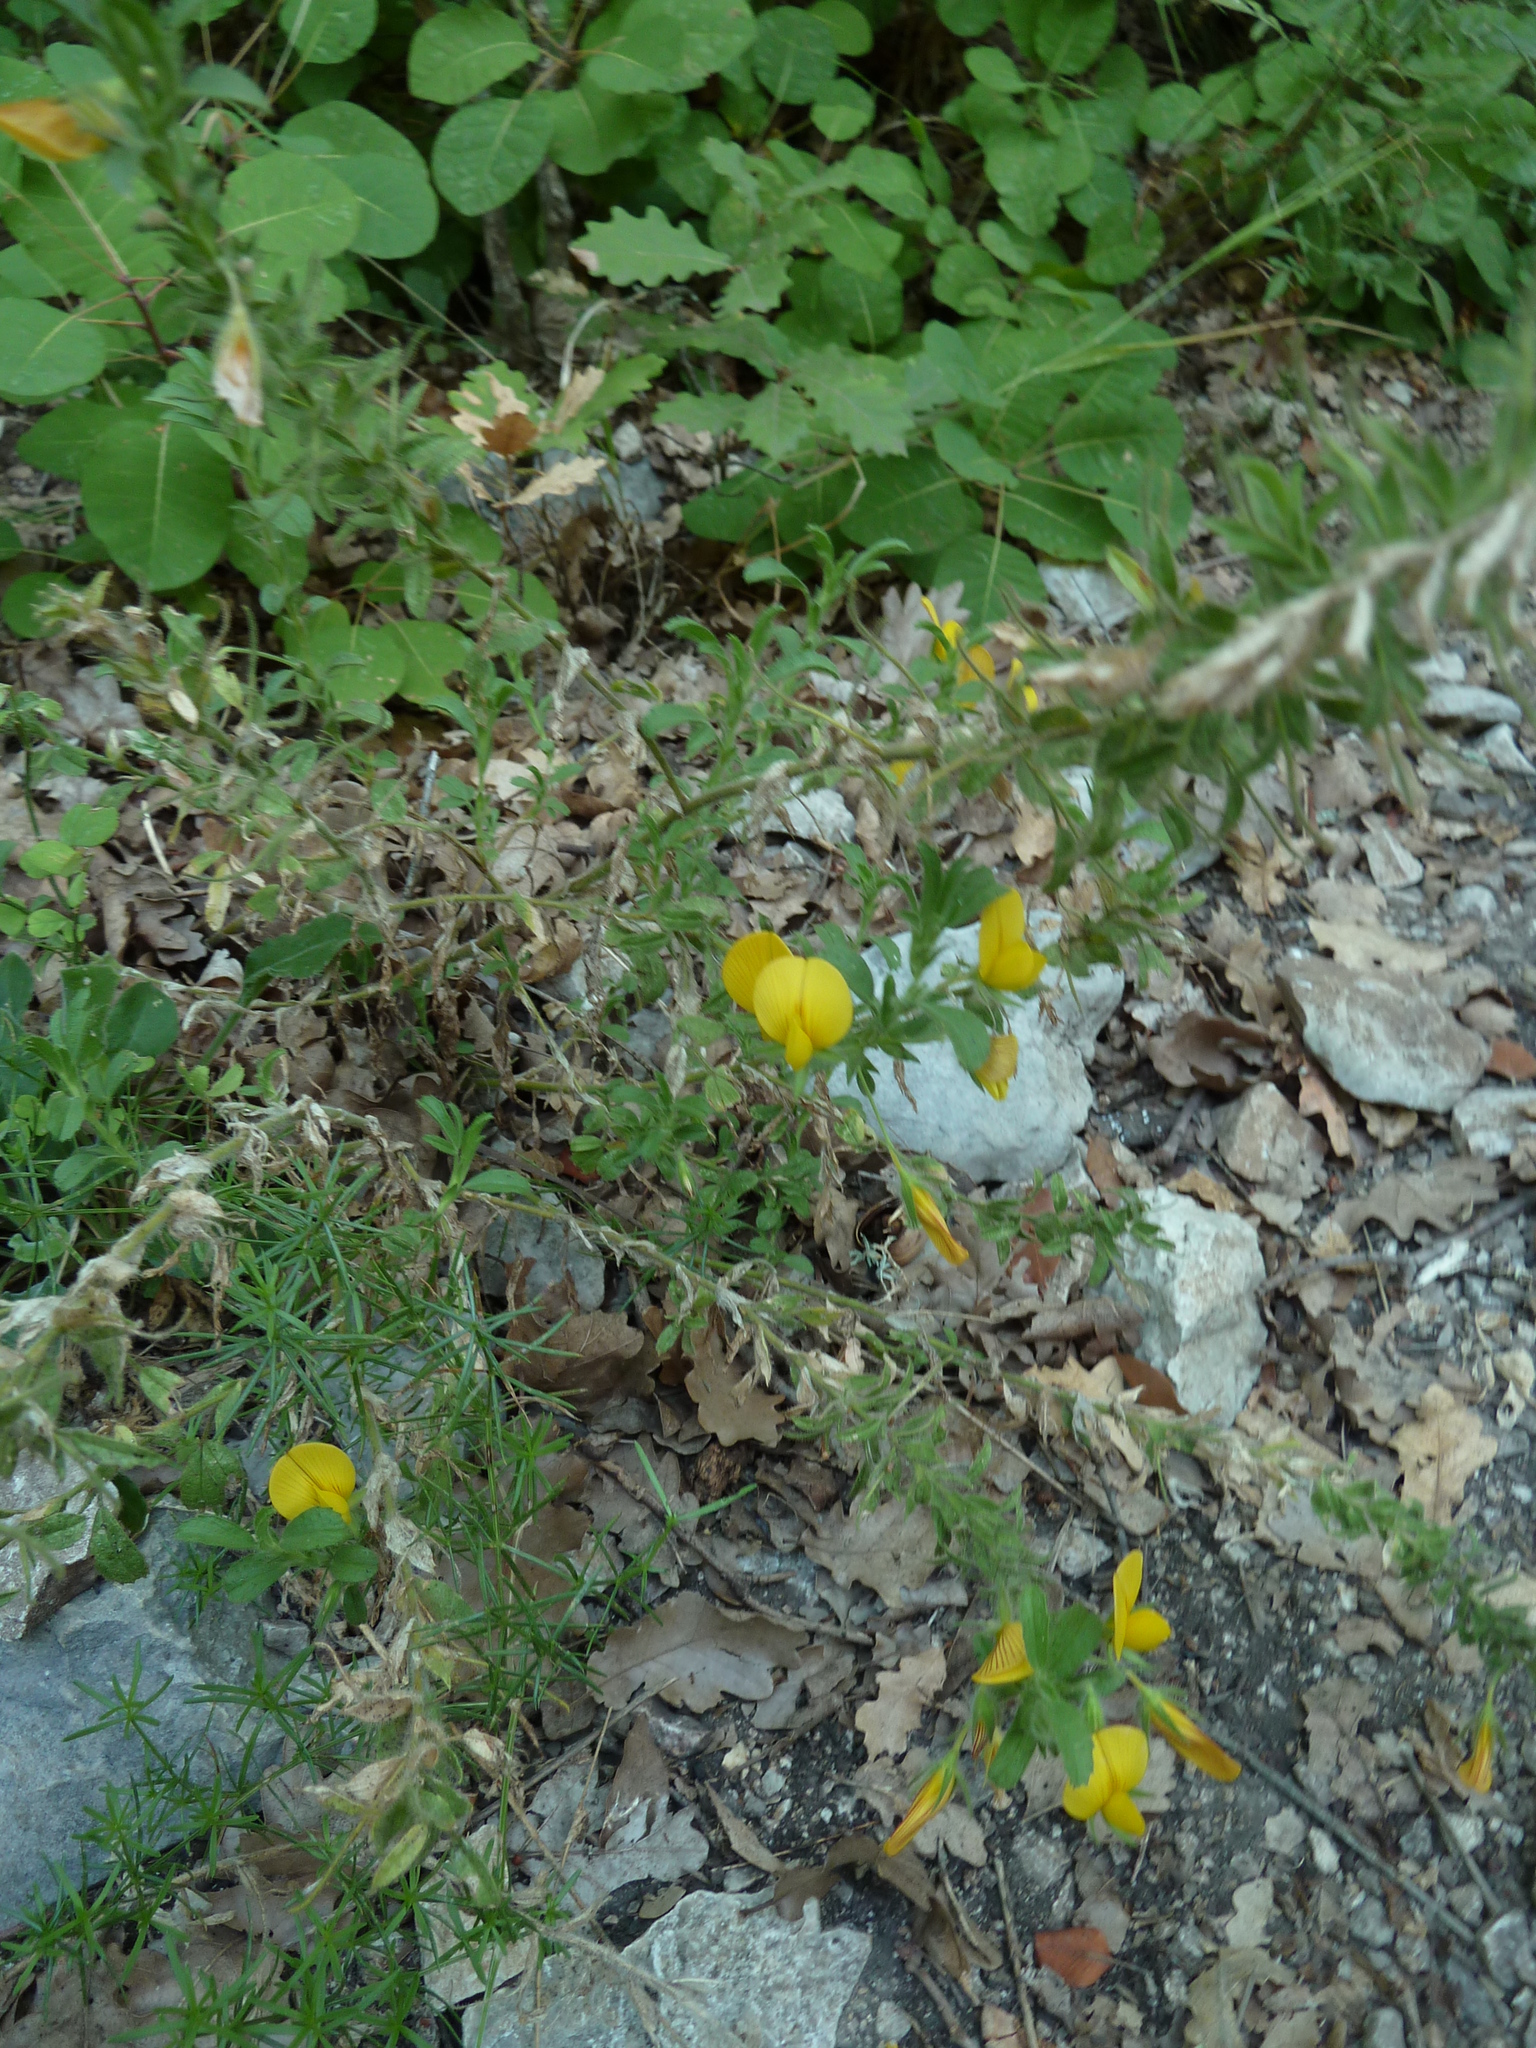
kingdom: Plantae
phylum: Tracheophyta
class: Magnoliopsida
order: Fabales
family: Fabaceae
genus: Ononis
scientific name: Ononis natrix
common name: Yellow restharrow
